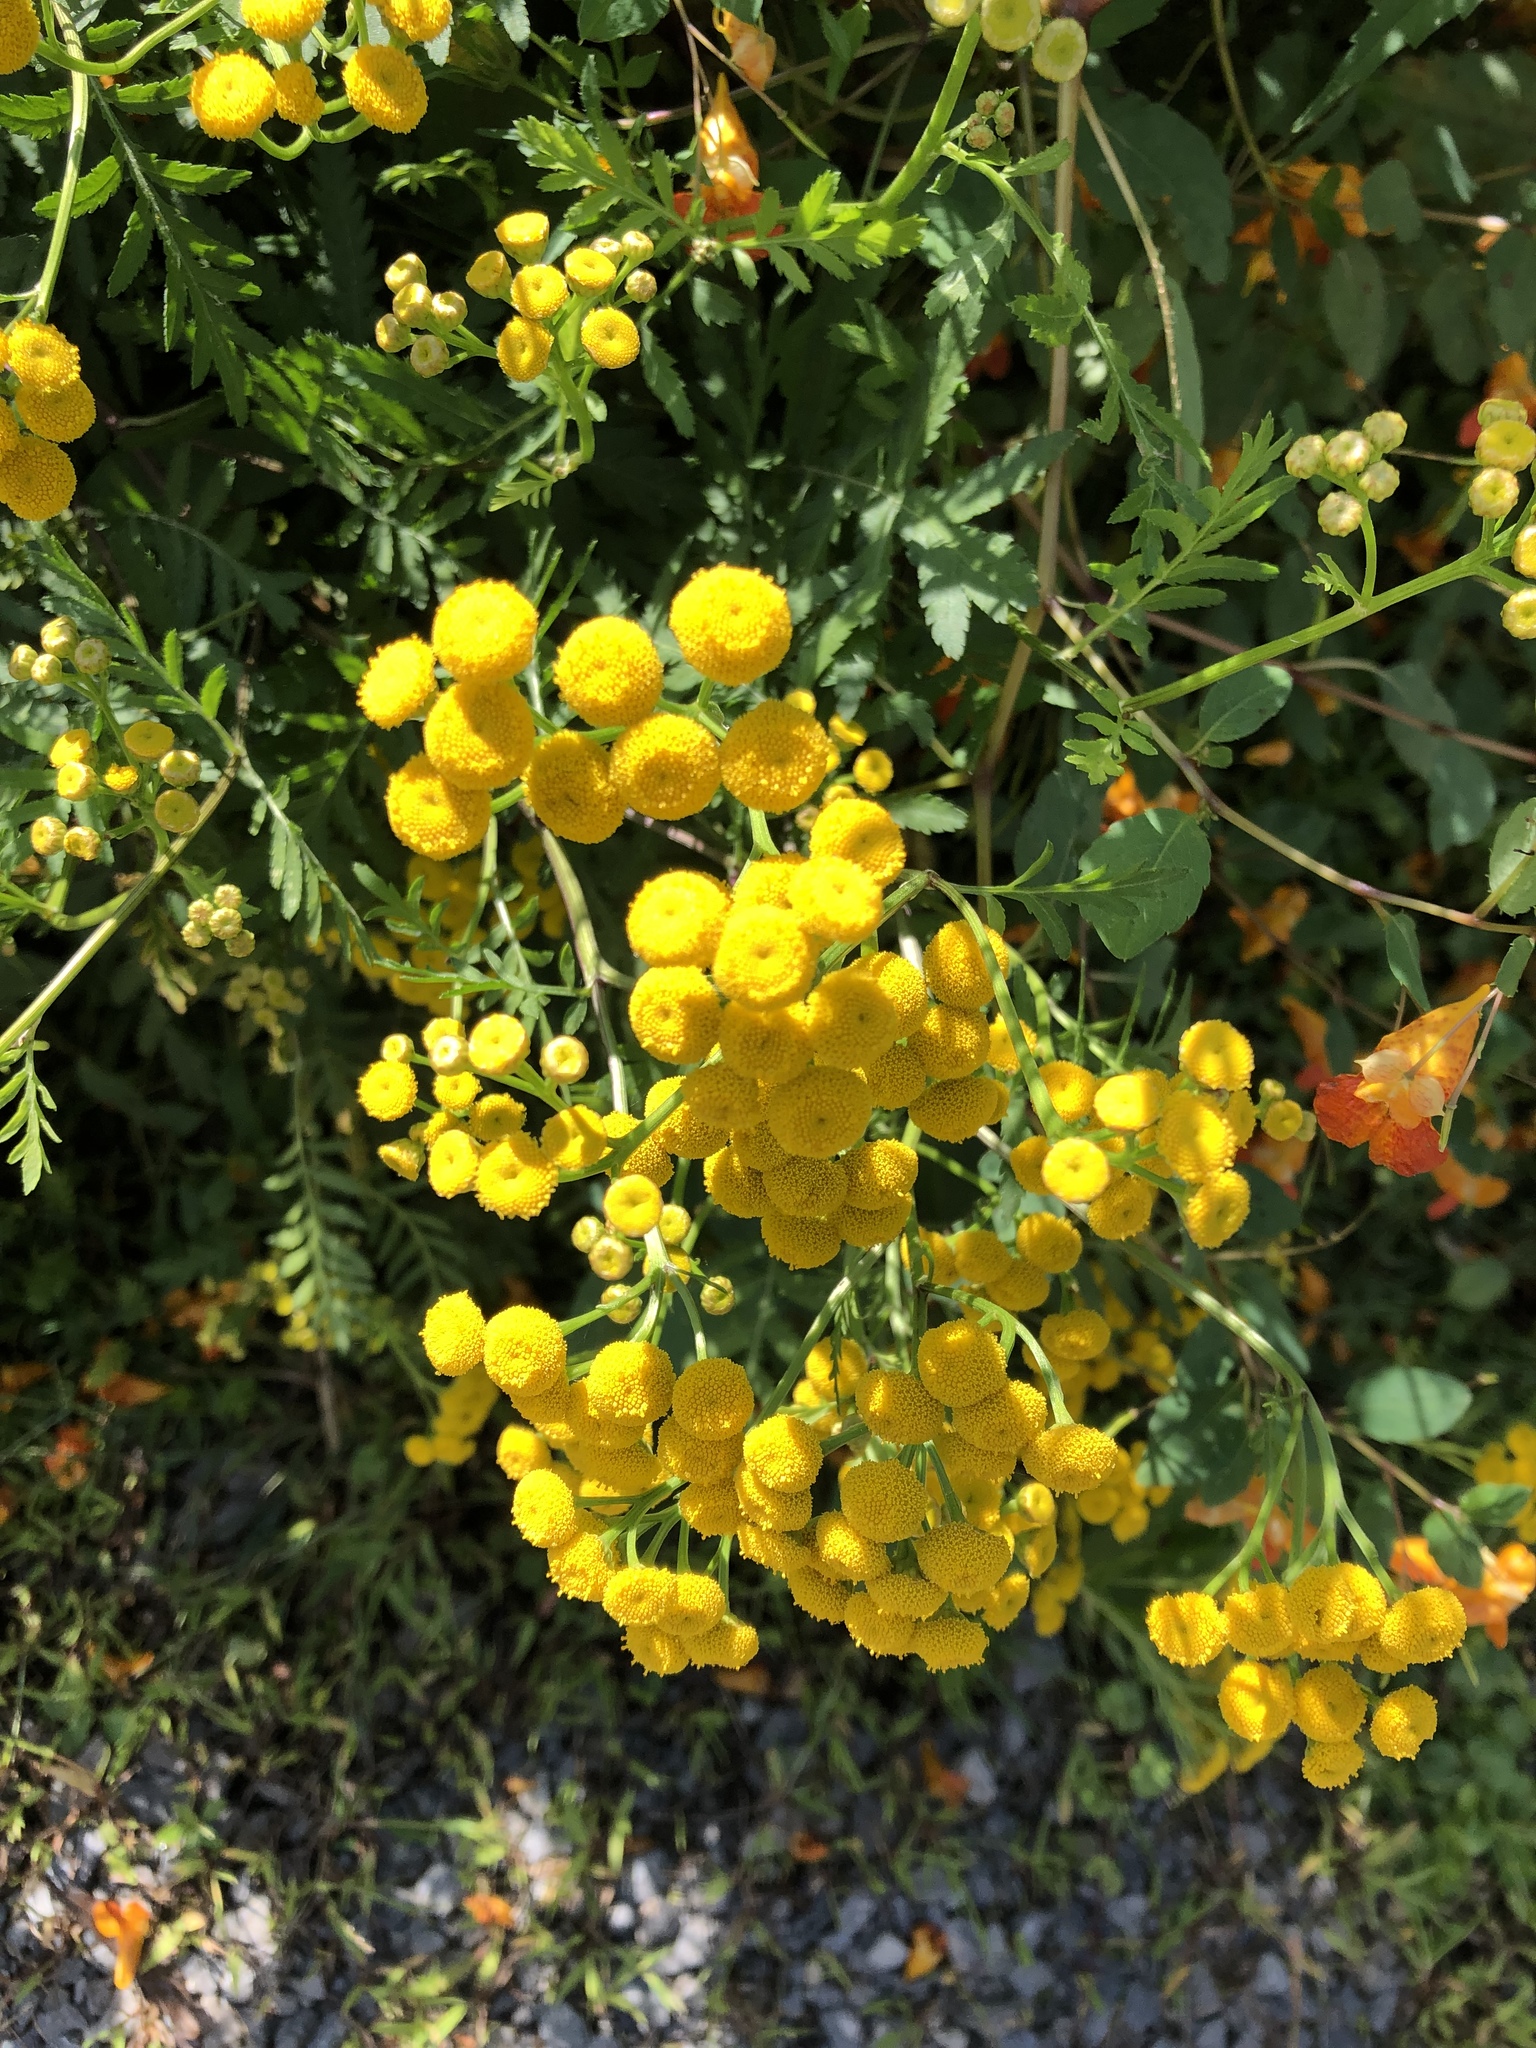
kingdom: Plantae
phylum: Tracheophyta
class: Magnoliopsida
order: Asterales
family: Asteraceae
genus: Tanacetum
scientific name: Tanacetum vulgare
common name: Common tansy
